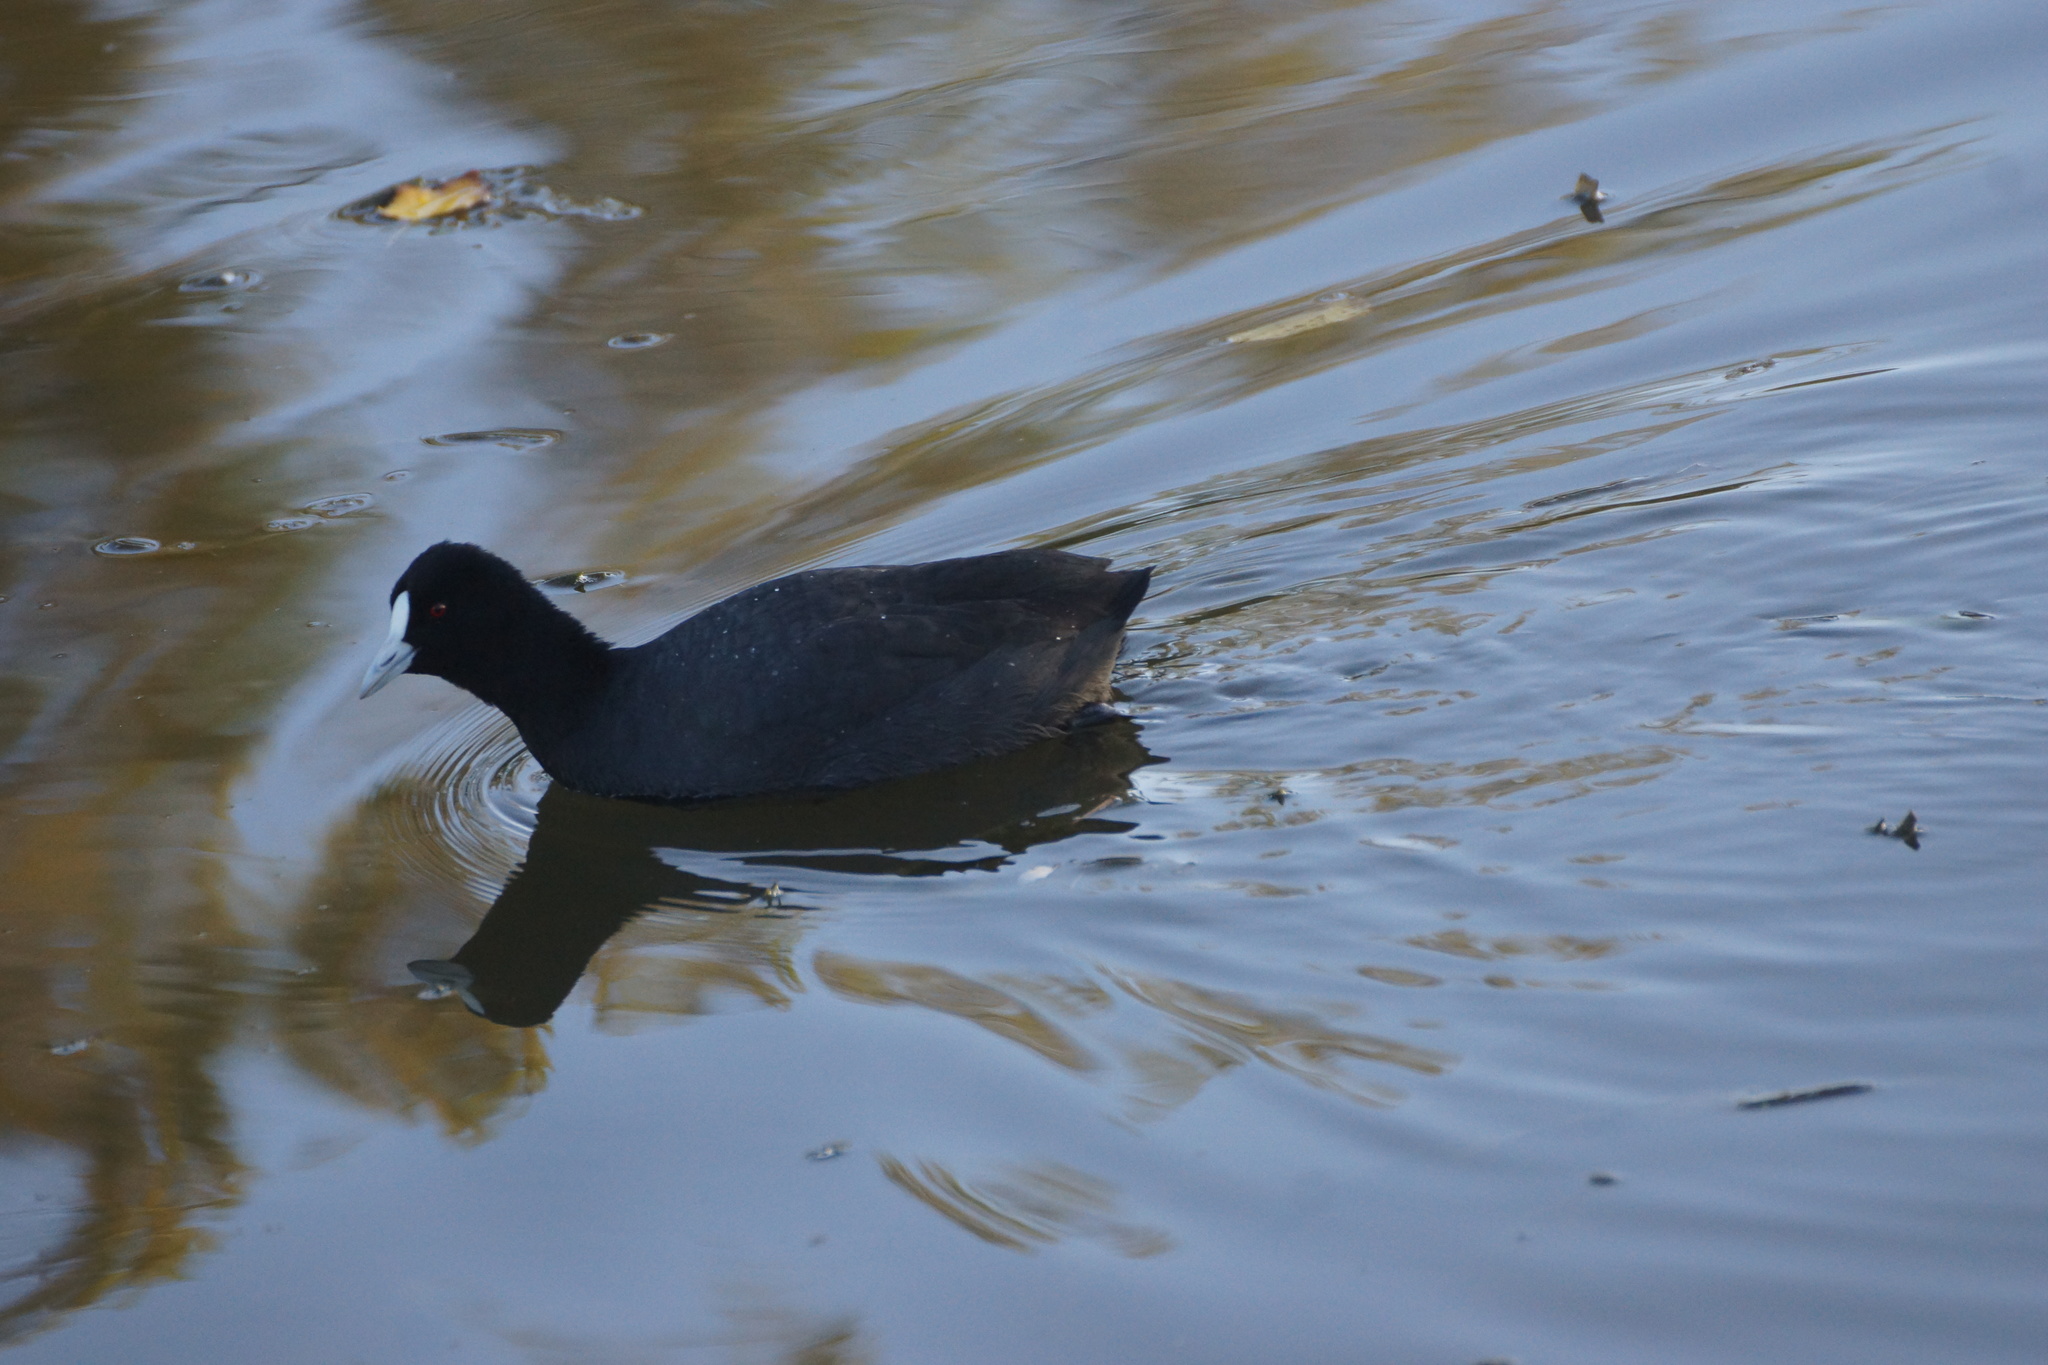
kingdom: Animalia
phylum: Chordata
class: Aves
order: Gruiformes
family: Rallidae
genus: Fulica
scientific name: Fulica atra
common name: Eurasian coot
